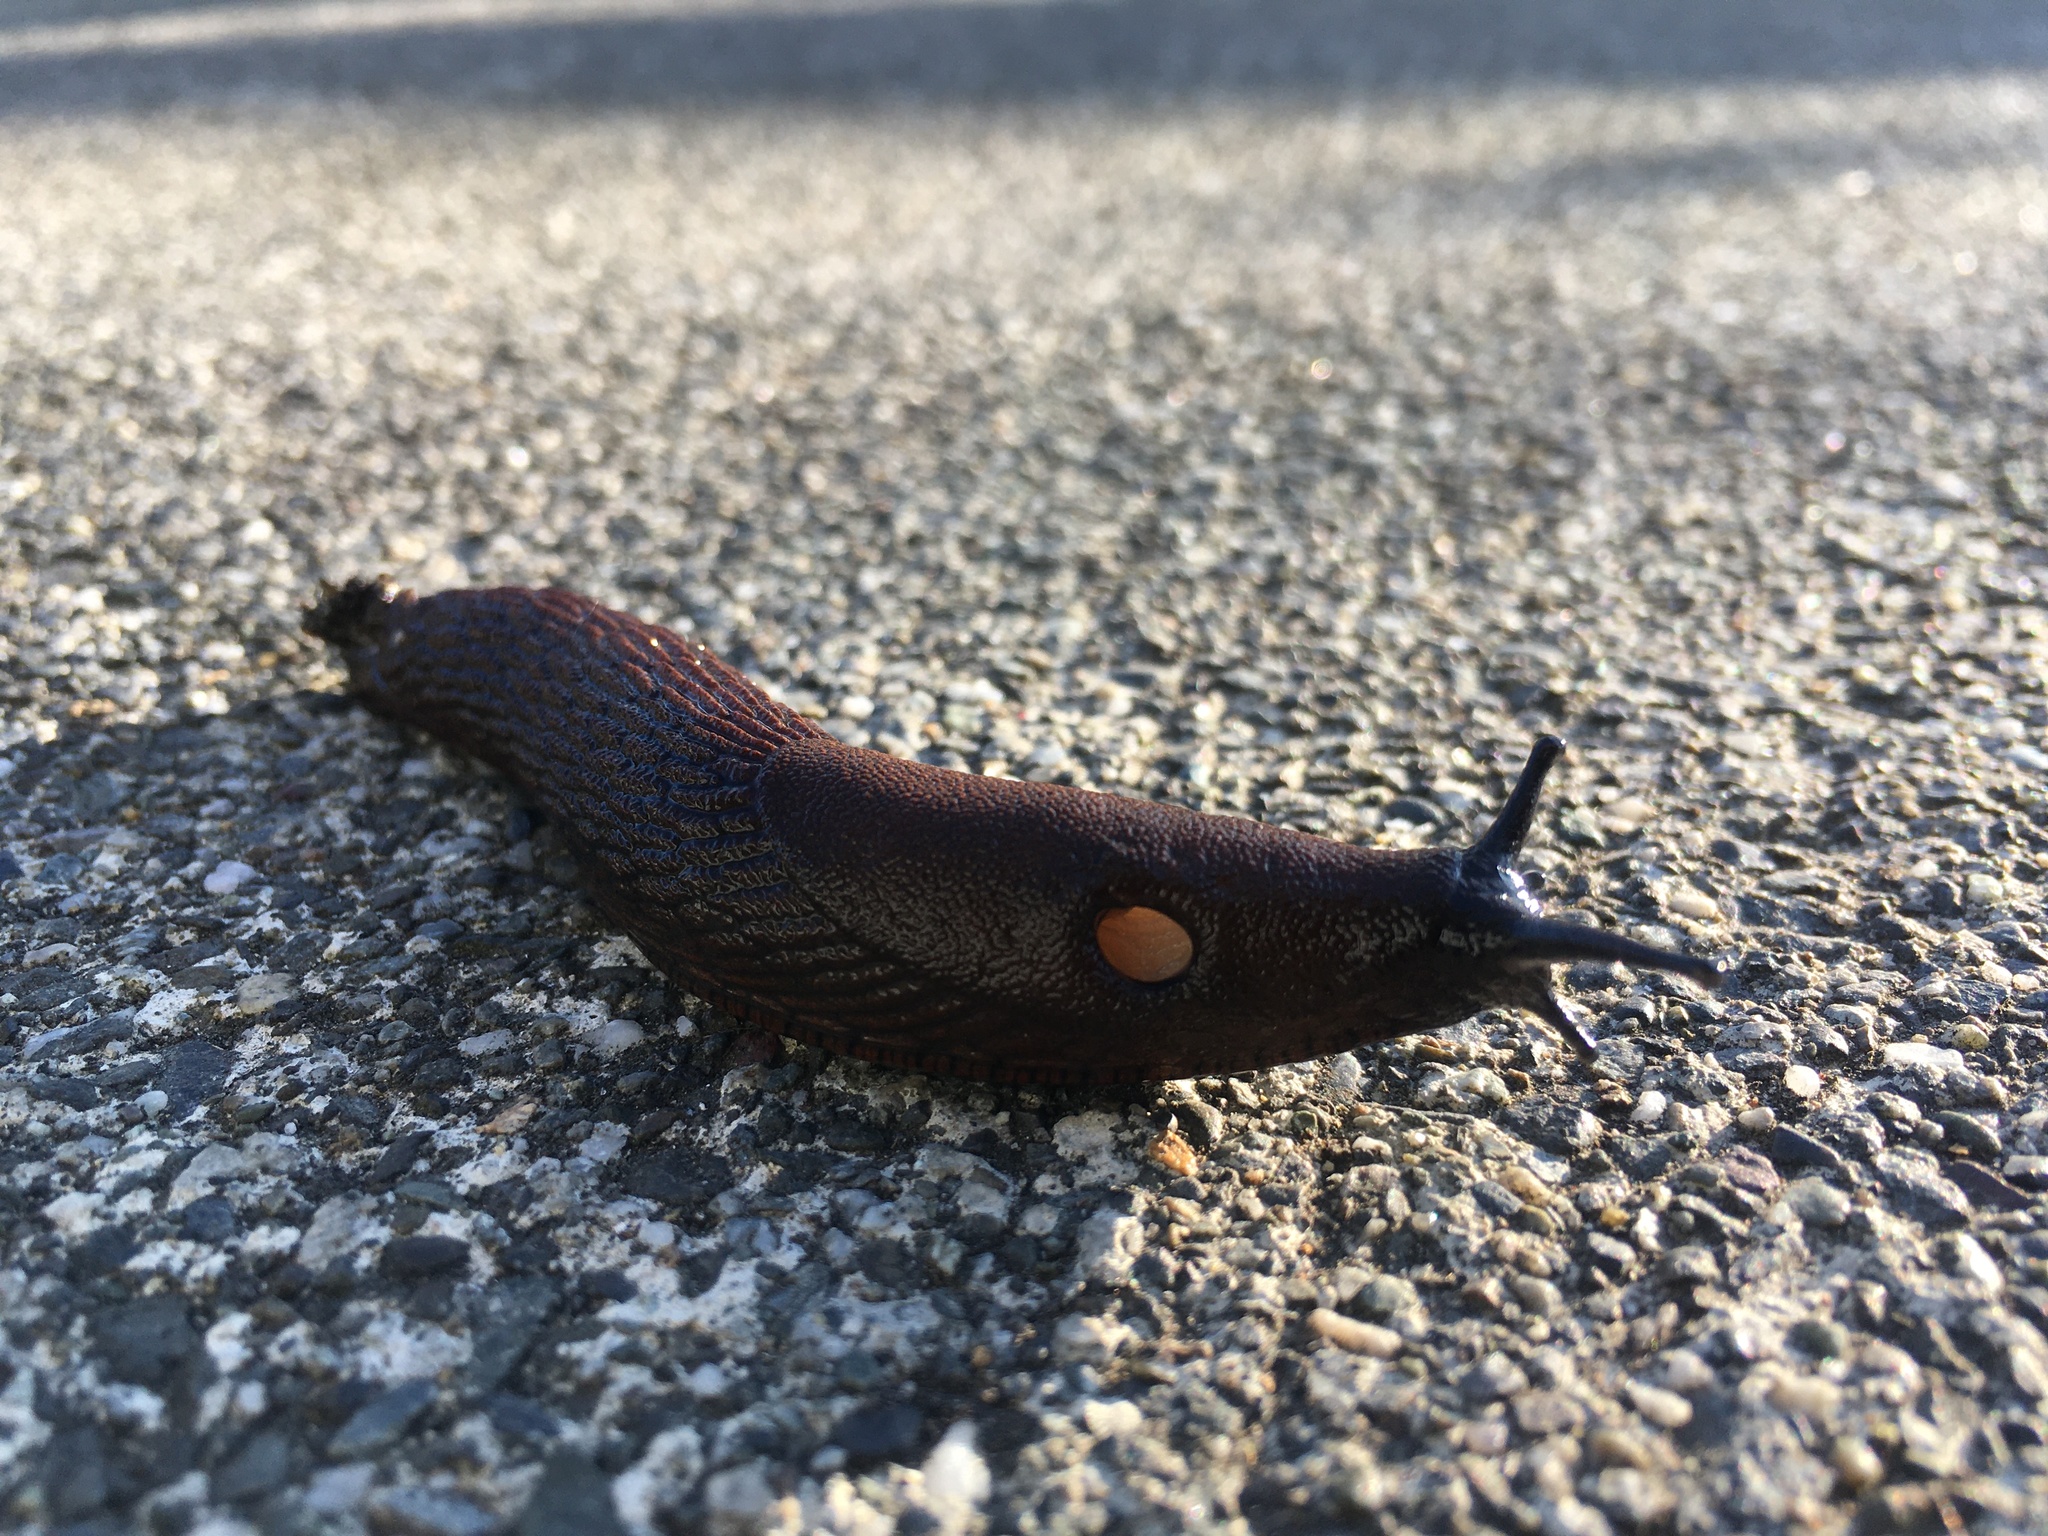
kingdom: Animalia
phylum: Mollusca
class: Gastropoda
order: Stylommatophora
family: Arionidae
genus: Arion
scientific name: Arion
